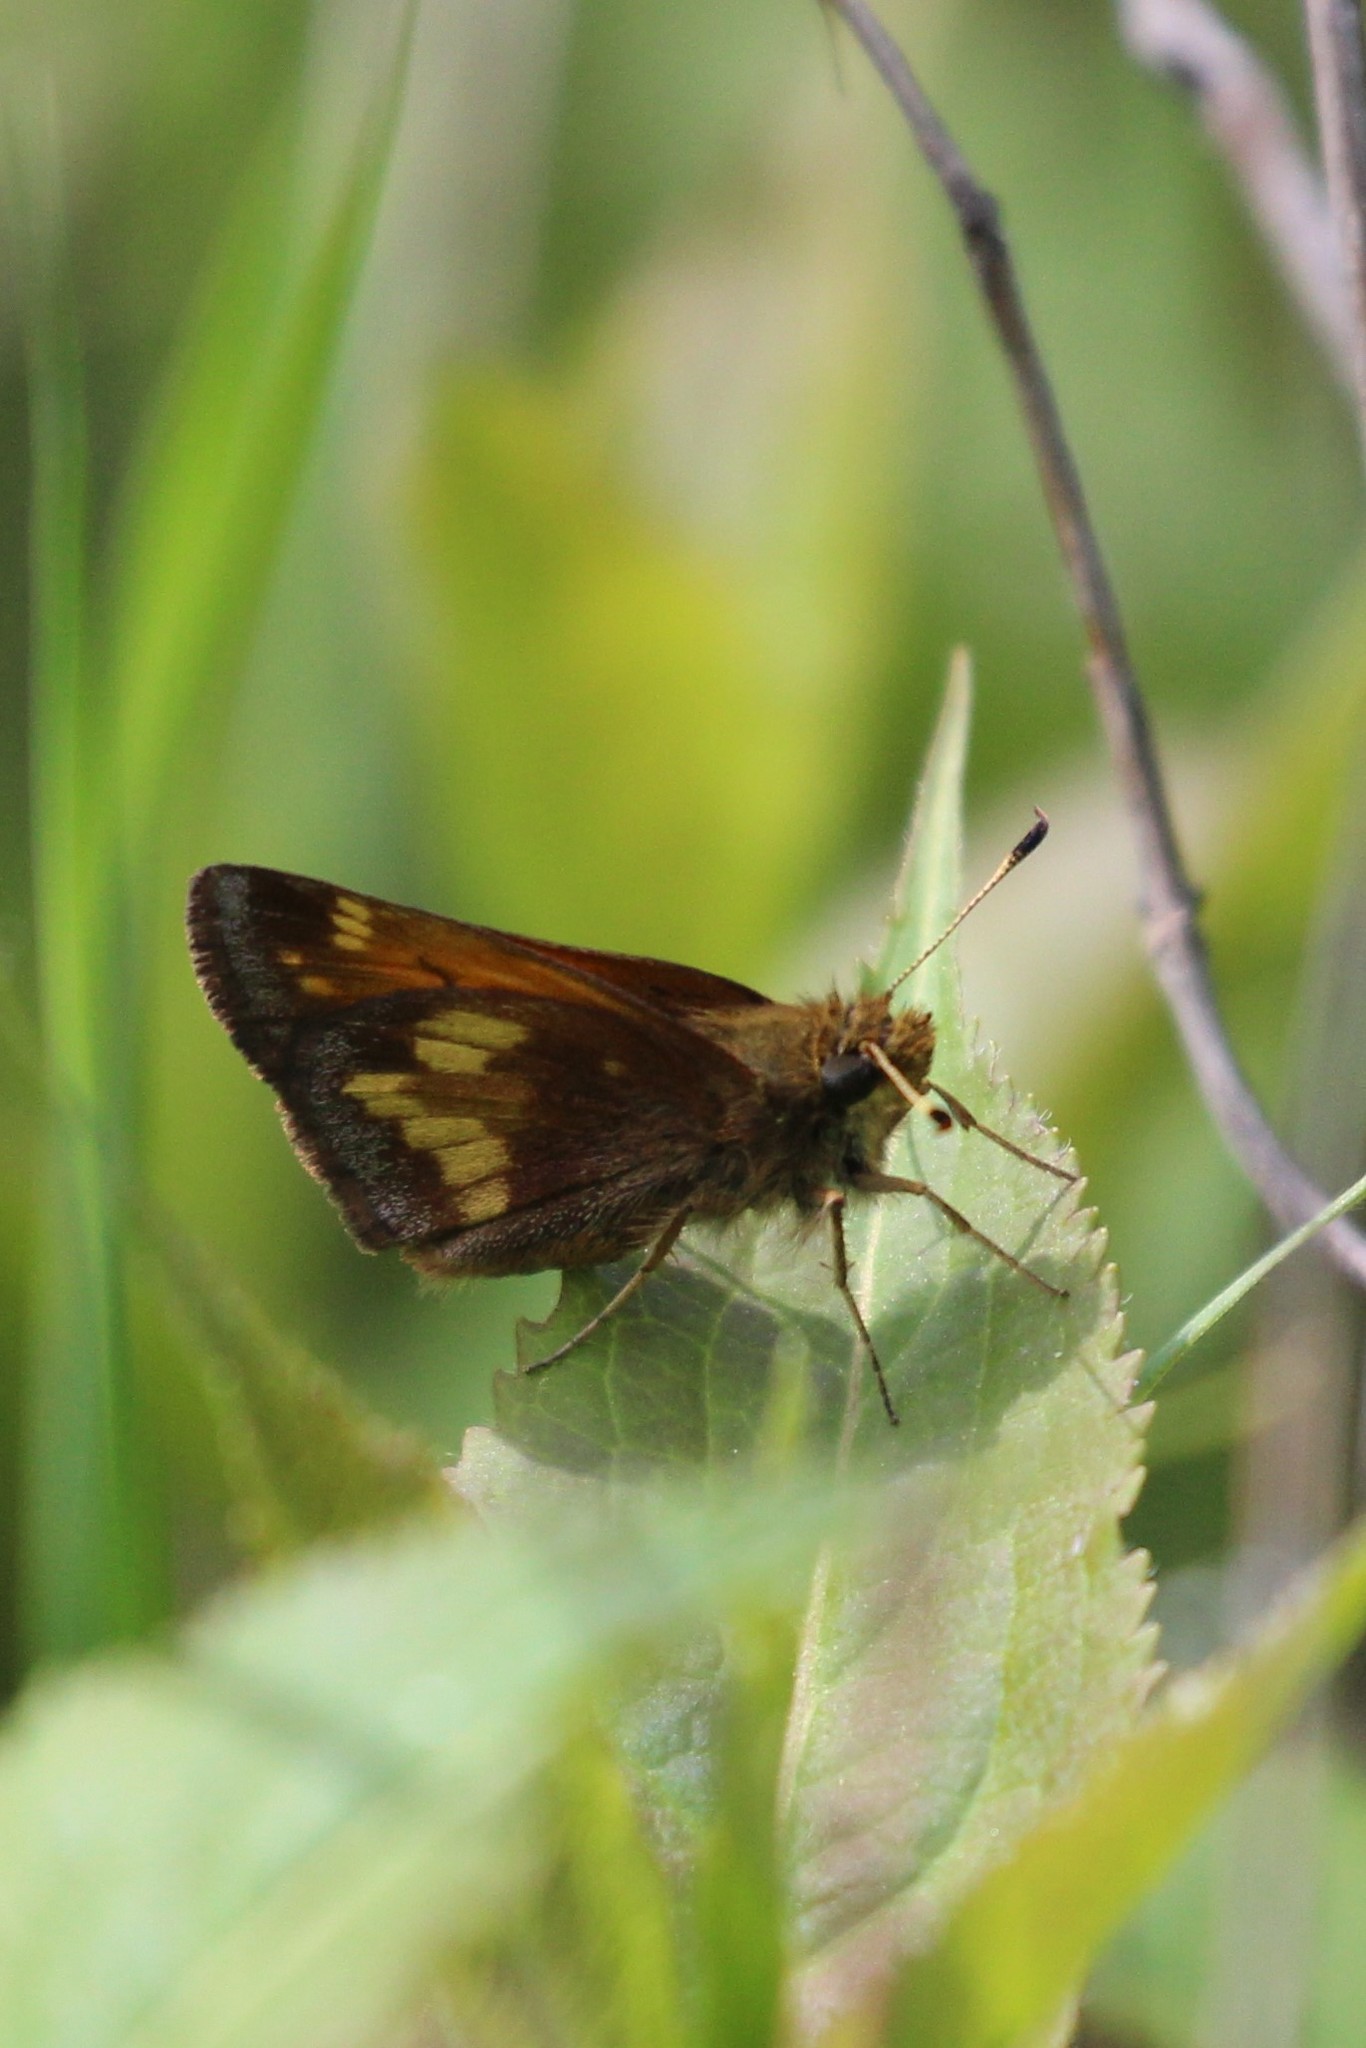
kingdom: Animalia
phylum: Arthropoda
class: Insecta
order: Lepidoptera
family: Hesperiidae
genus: Lon
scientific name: Lon hobomok
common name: Hobomok skipper
